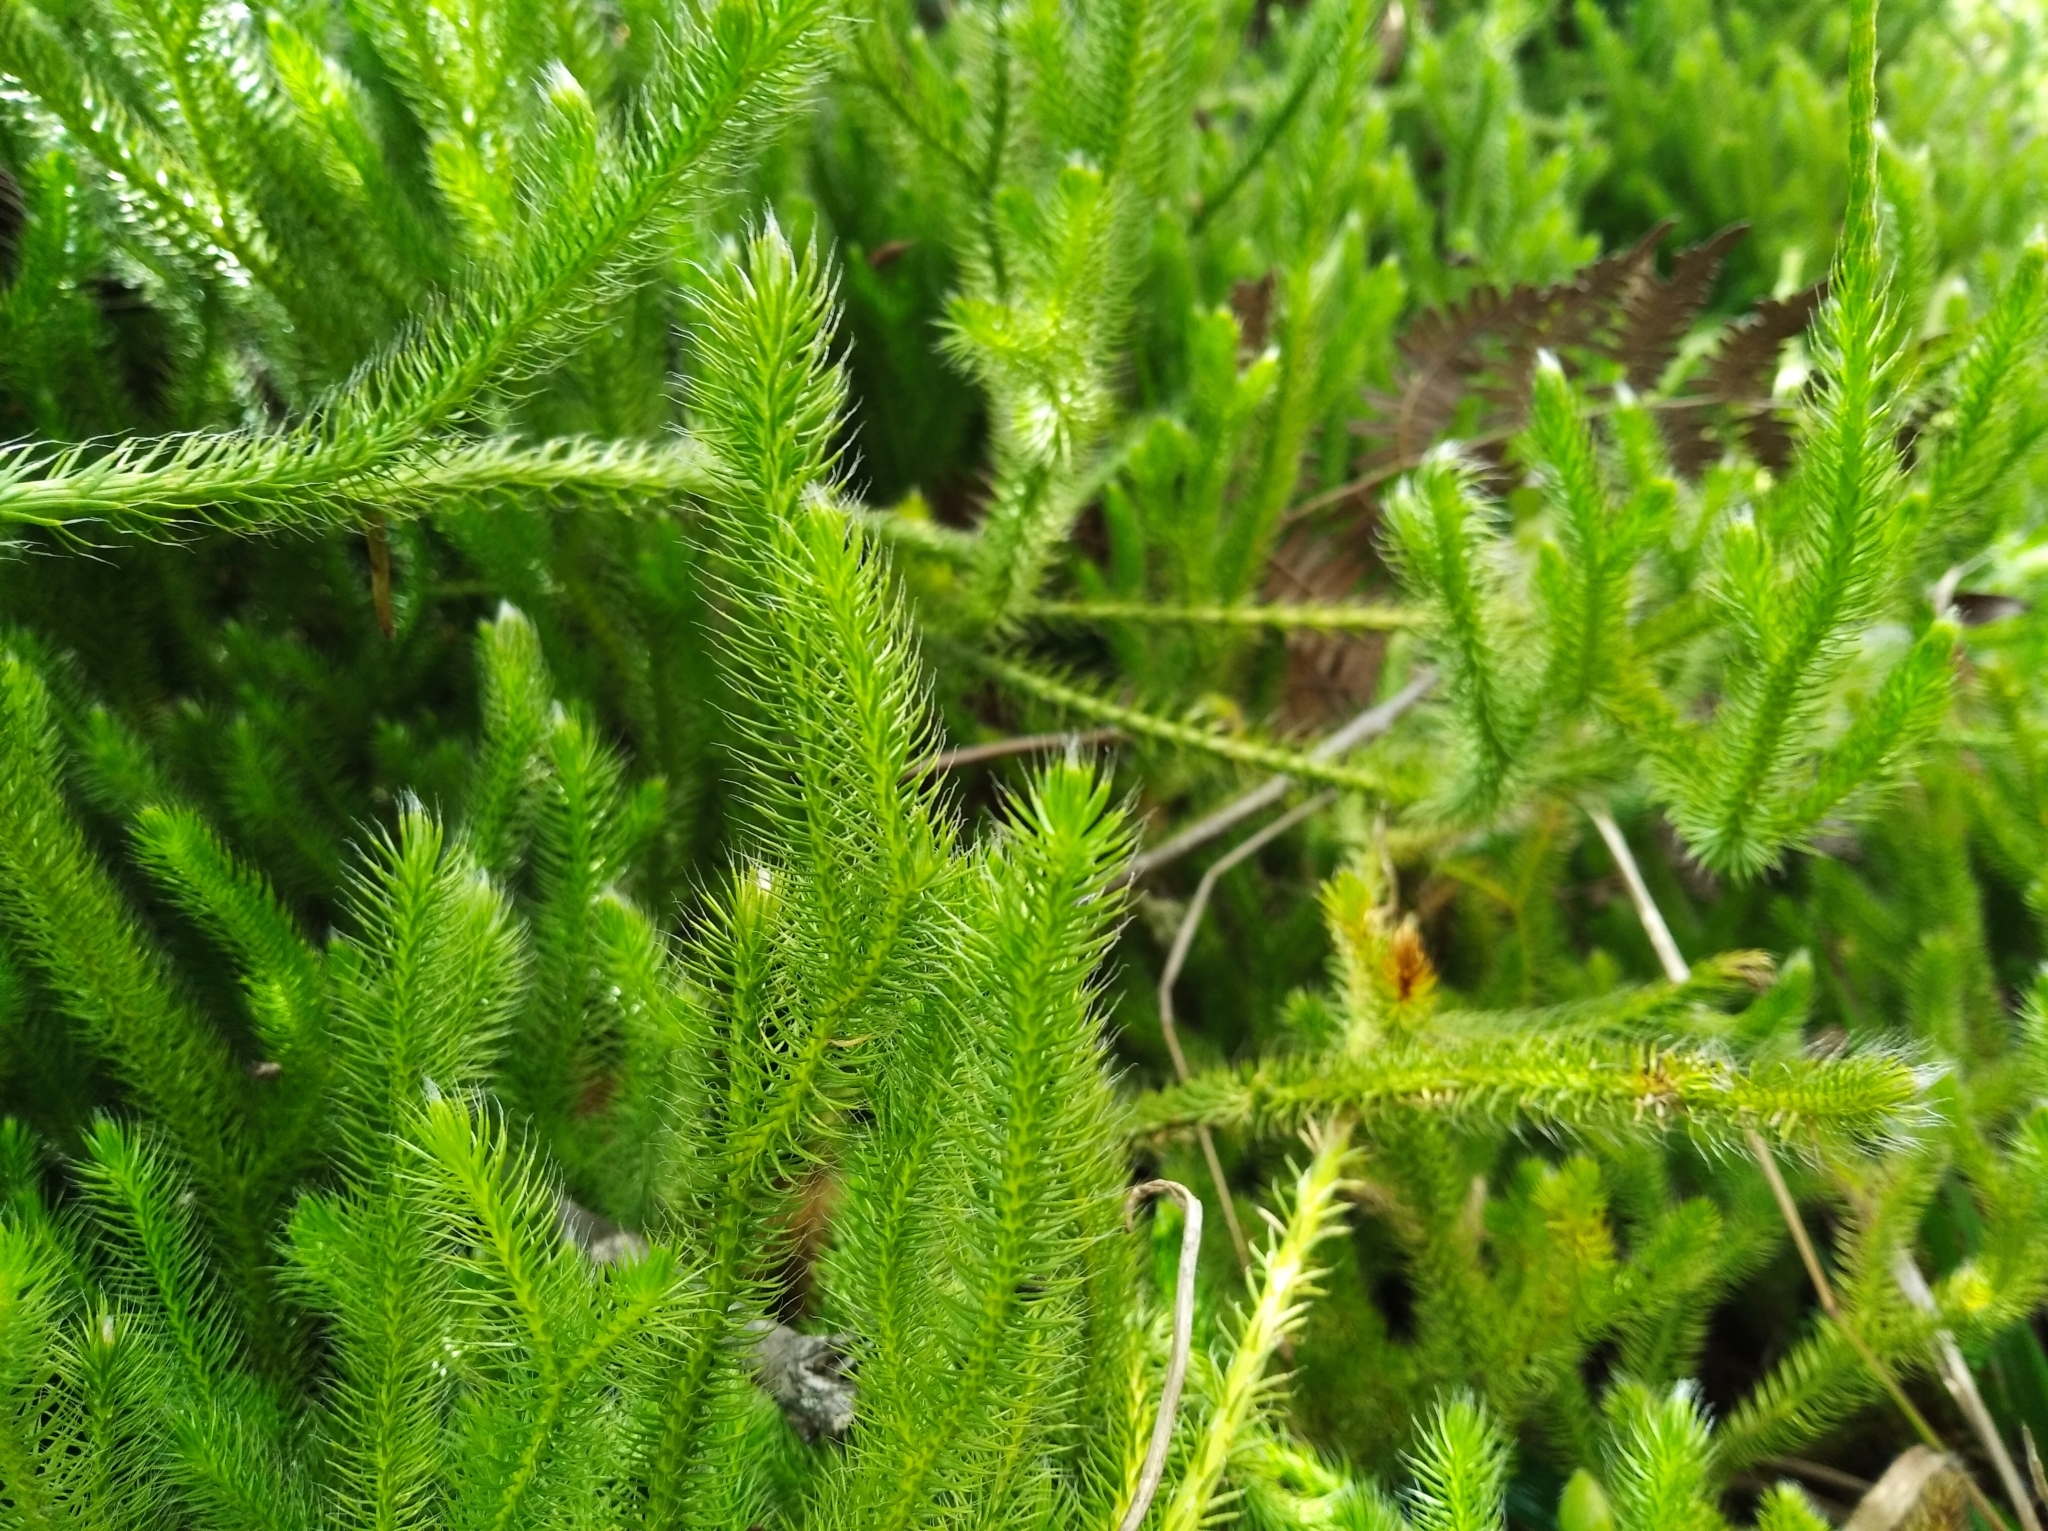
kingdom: Plantae
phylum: Tracheophyta
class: Lycopodiopsida
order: Lycopodiales
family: Lycopodiaceae
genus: Lycopodium
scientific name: Lycopodium clavatum
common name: Stag's-horn clubmoss
